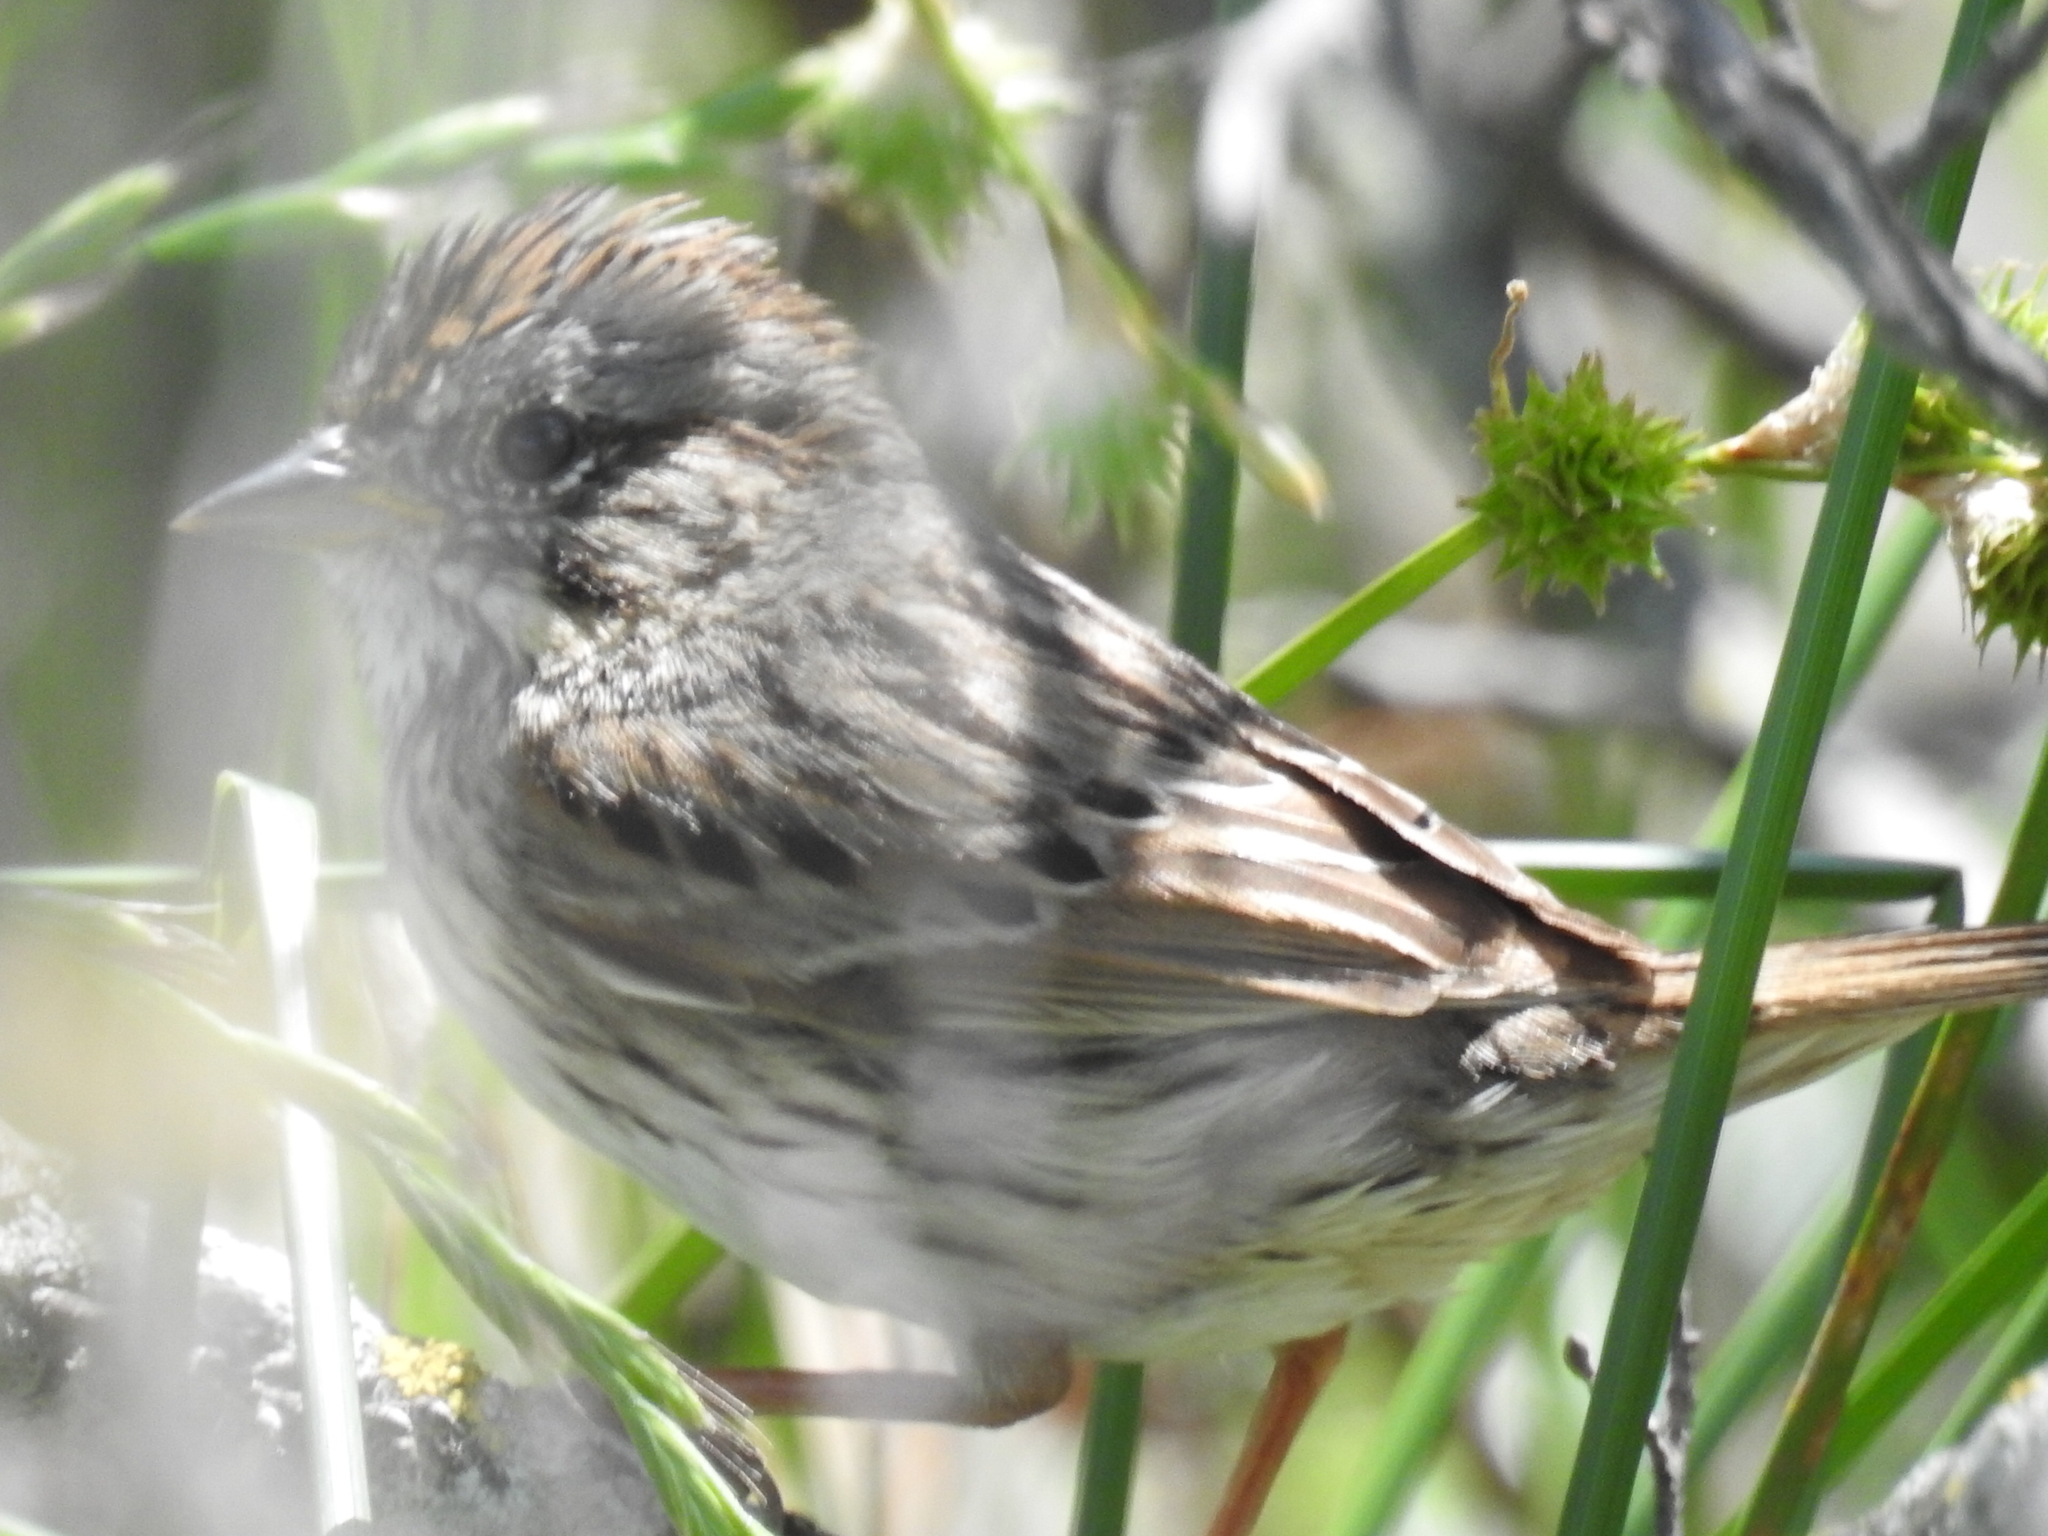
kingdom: Animalia
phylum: Chordata
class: Aves
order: Passeriformes
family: Passerellidae
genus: Melospiza
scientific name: Melospiza lincolnii
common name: Lincoln's sparrow
